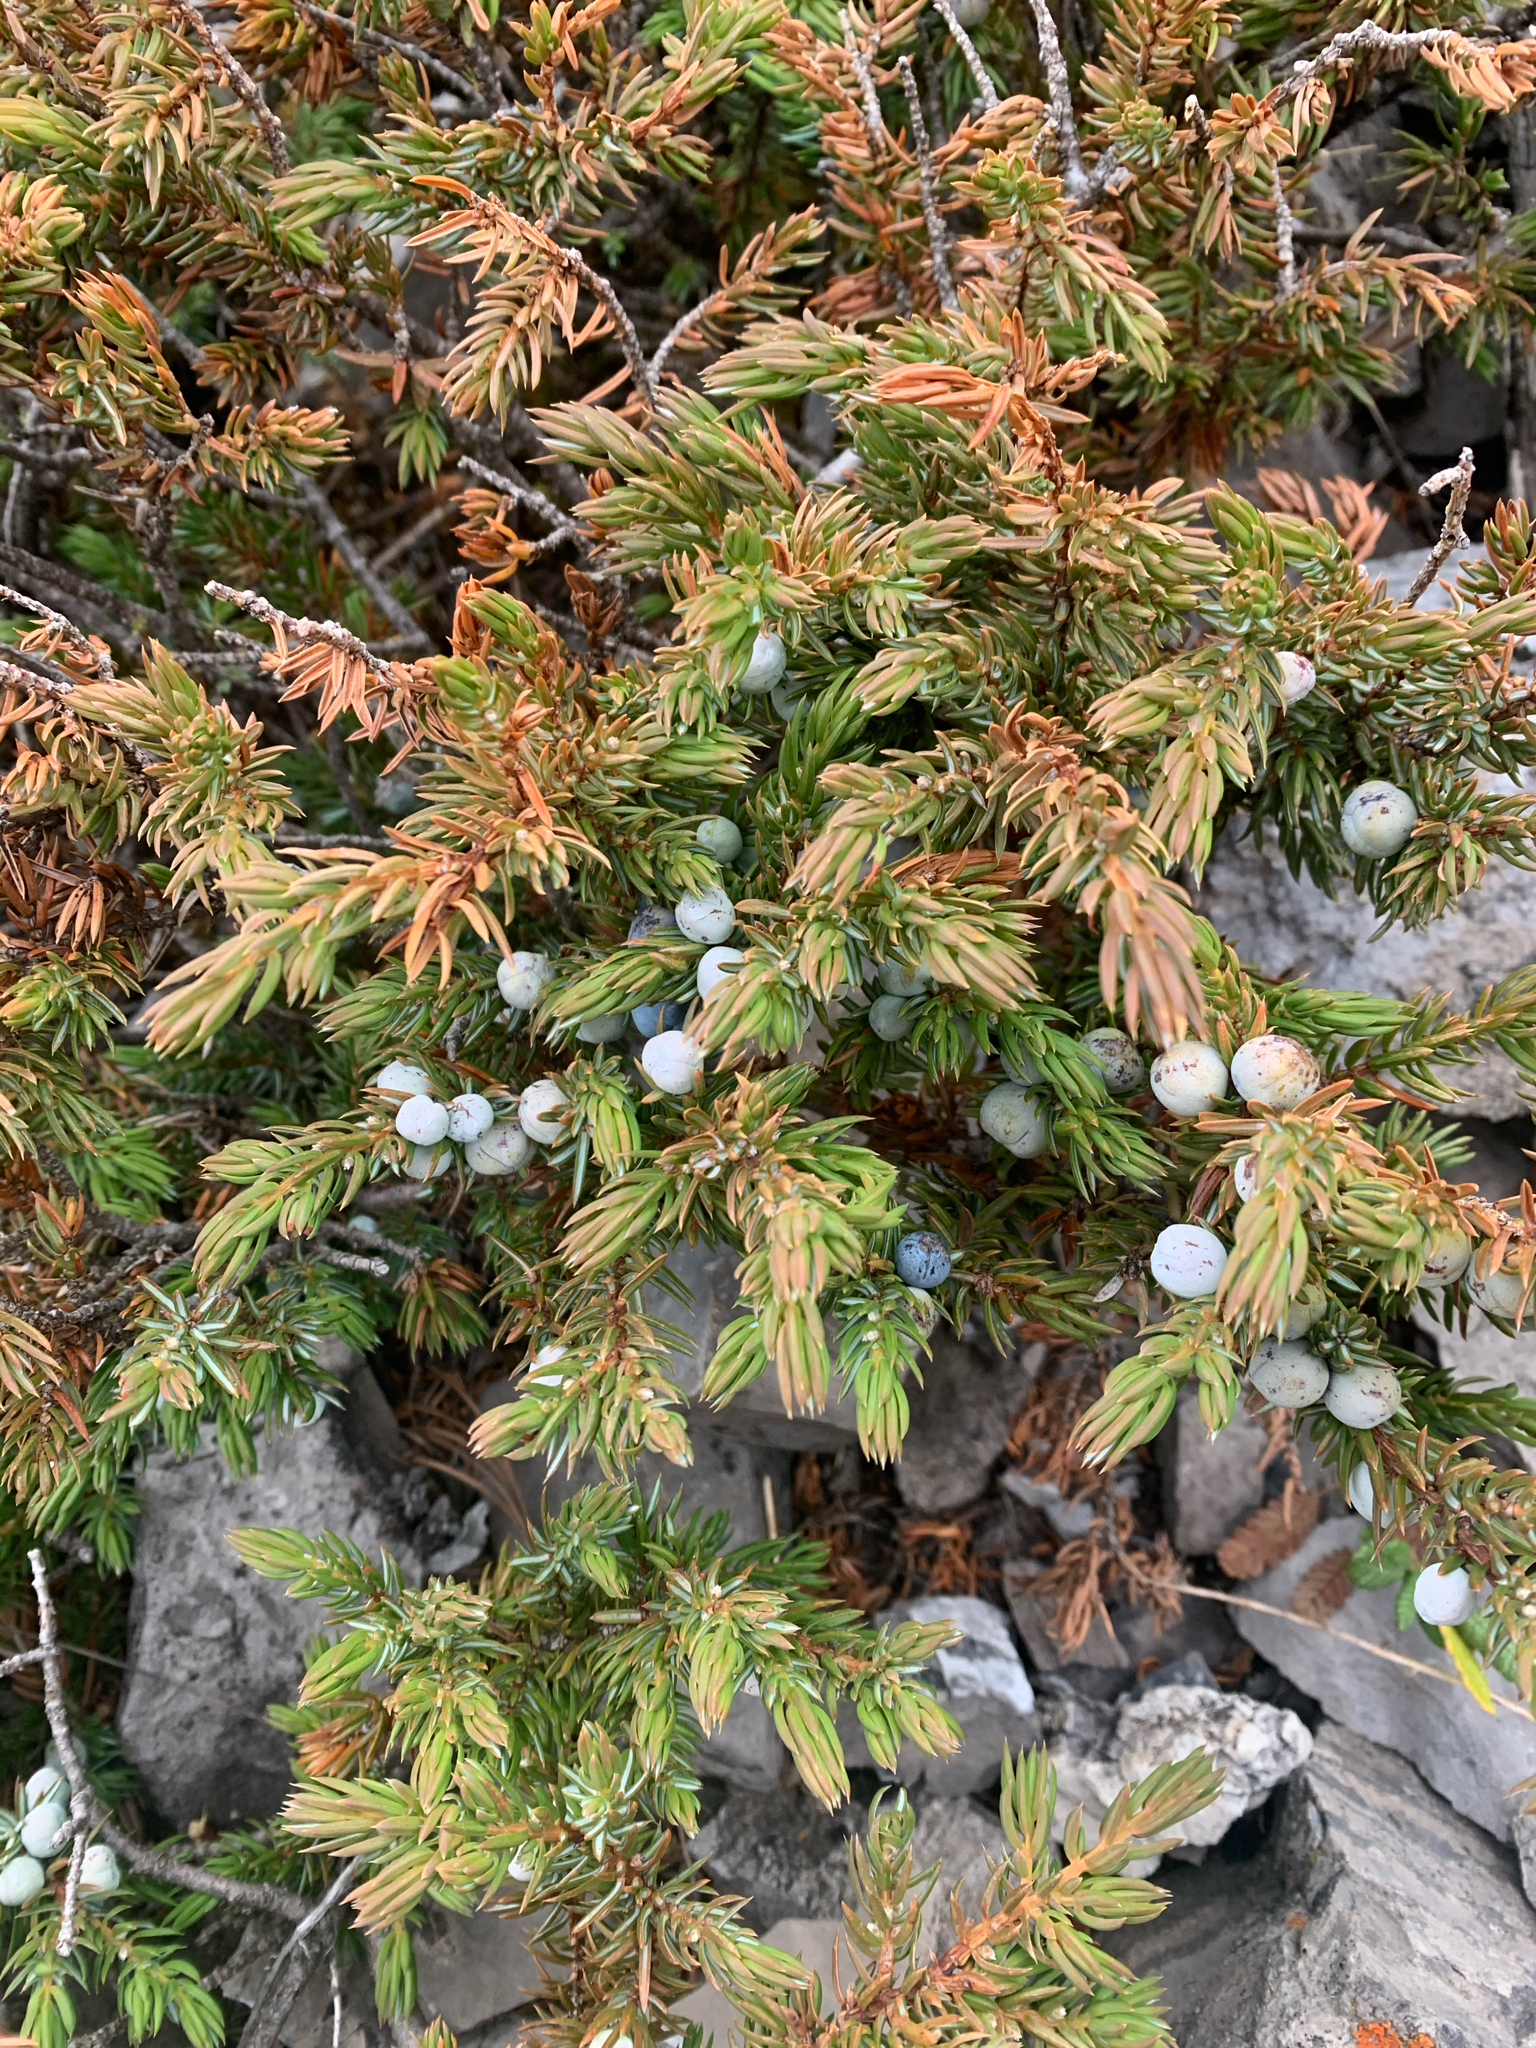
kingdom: Plantae
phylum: Tracheophyta
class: Pinopsida
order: Pinales
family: Cupressaceae
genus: Juniperus
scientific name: Juniperus communis
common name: Common juniper
